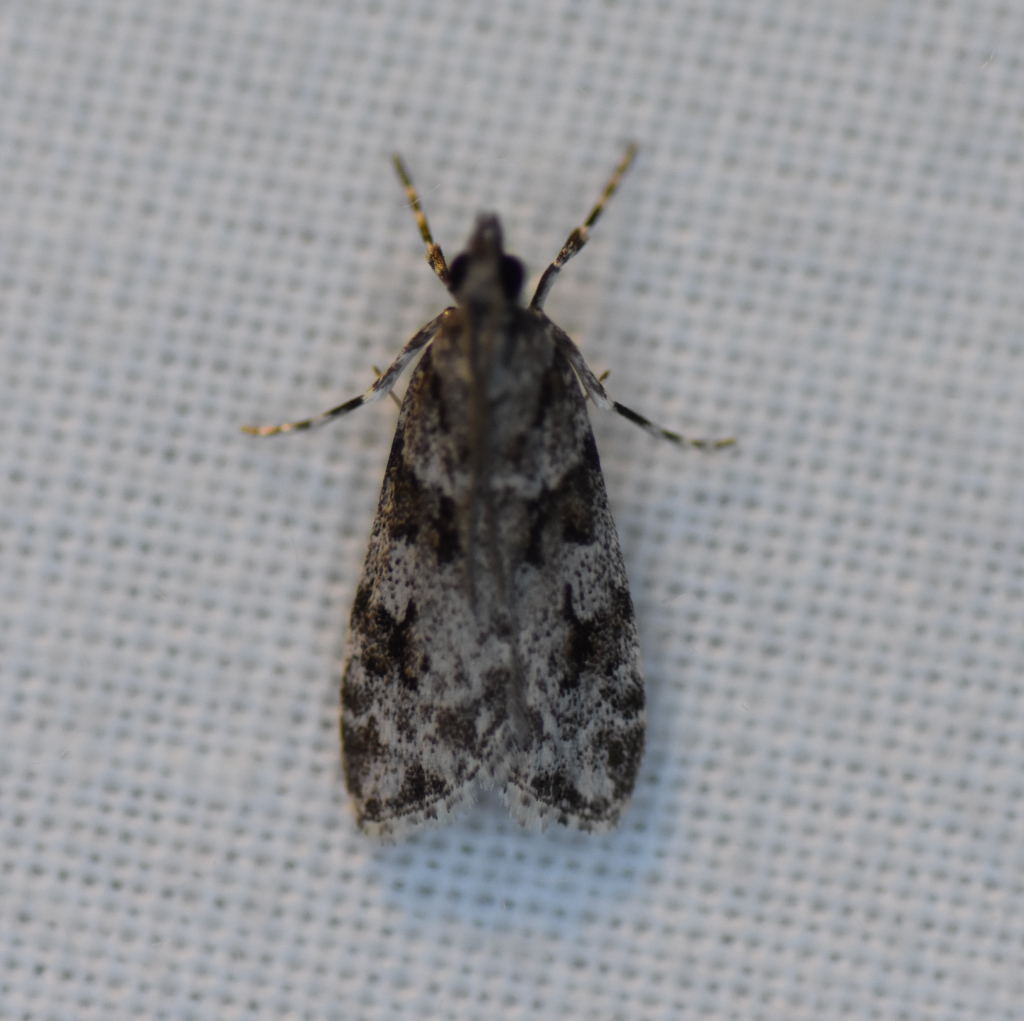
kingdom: Animalia
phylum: Arthropoda
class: Insecta
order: Lepidoptera
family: Crambidae
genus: Scoparia
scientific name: Scoparia biplagialis
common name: Double-striped scoparia moth
